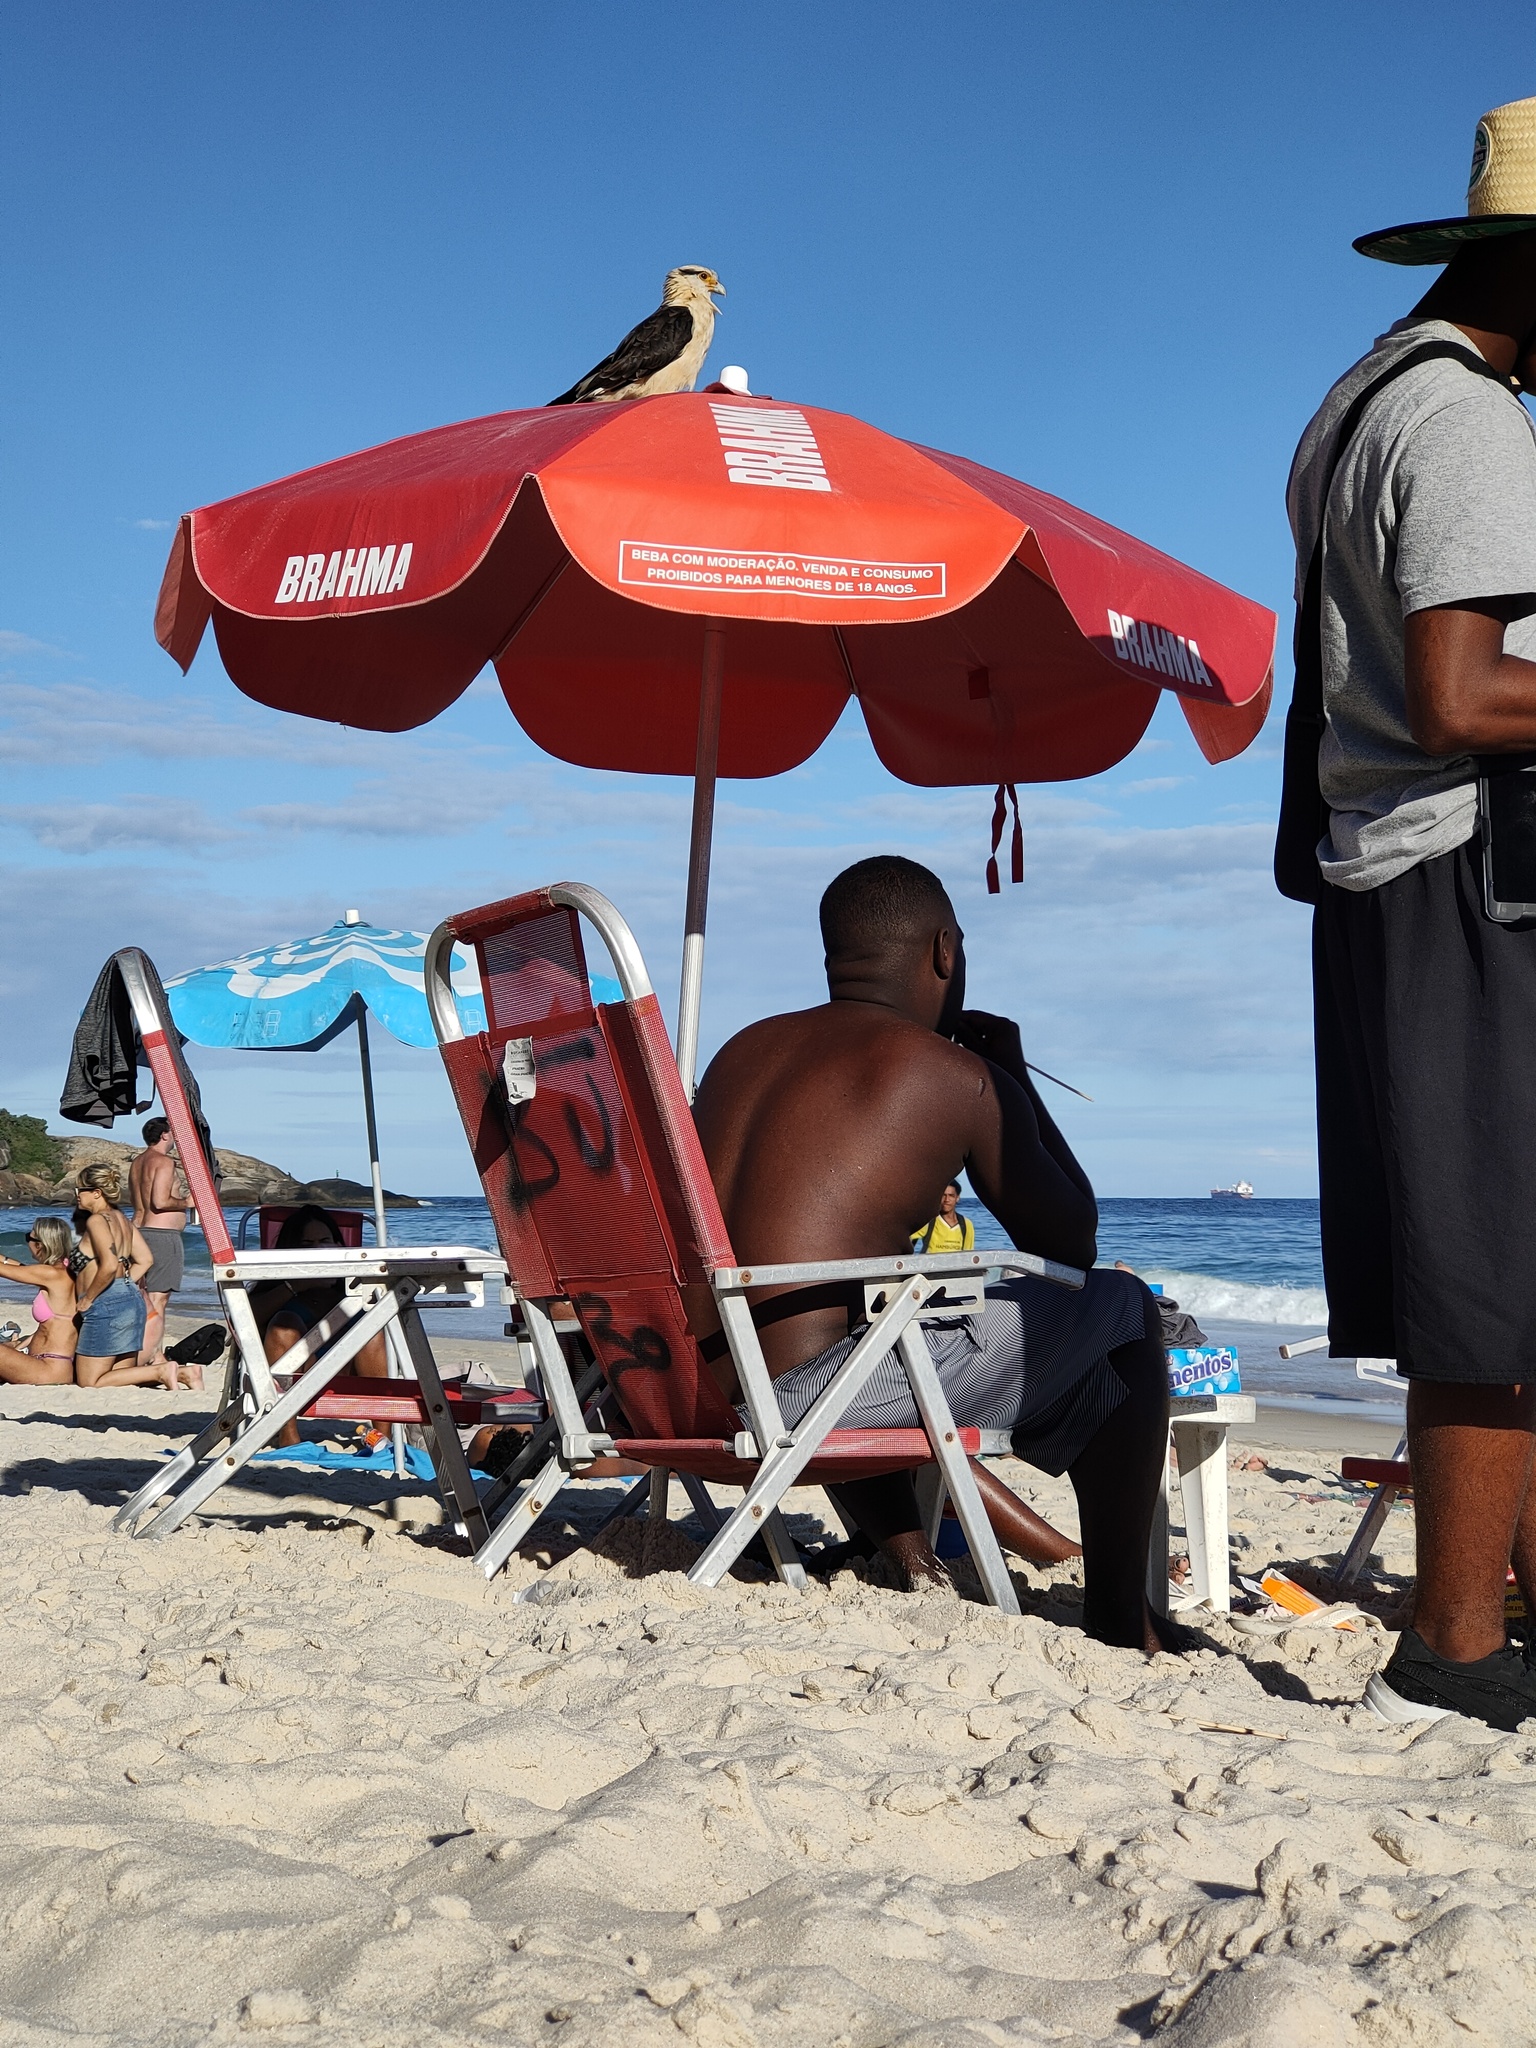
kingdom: Animalia
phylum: Chordata
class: Aves
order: Falconiformes
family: Falconidae
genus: Daptrius
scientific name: Daptrius
